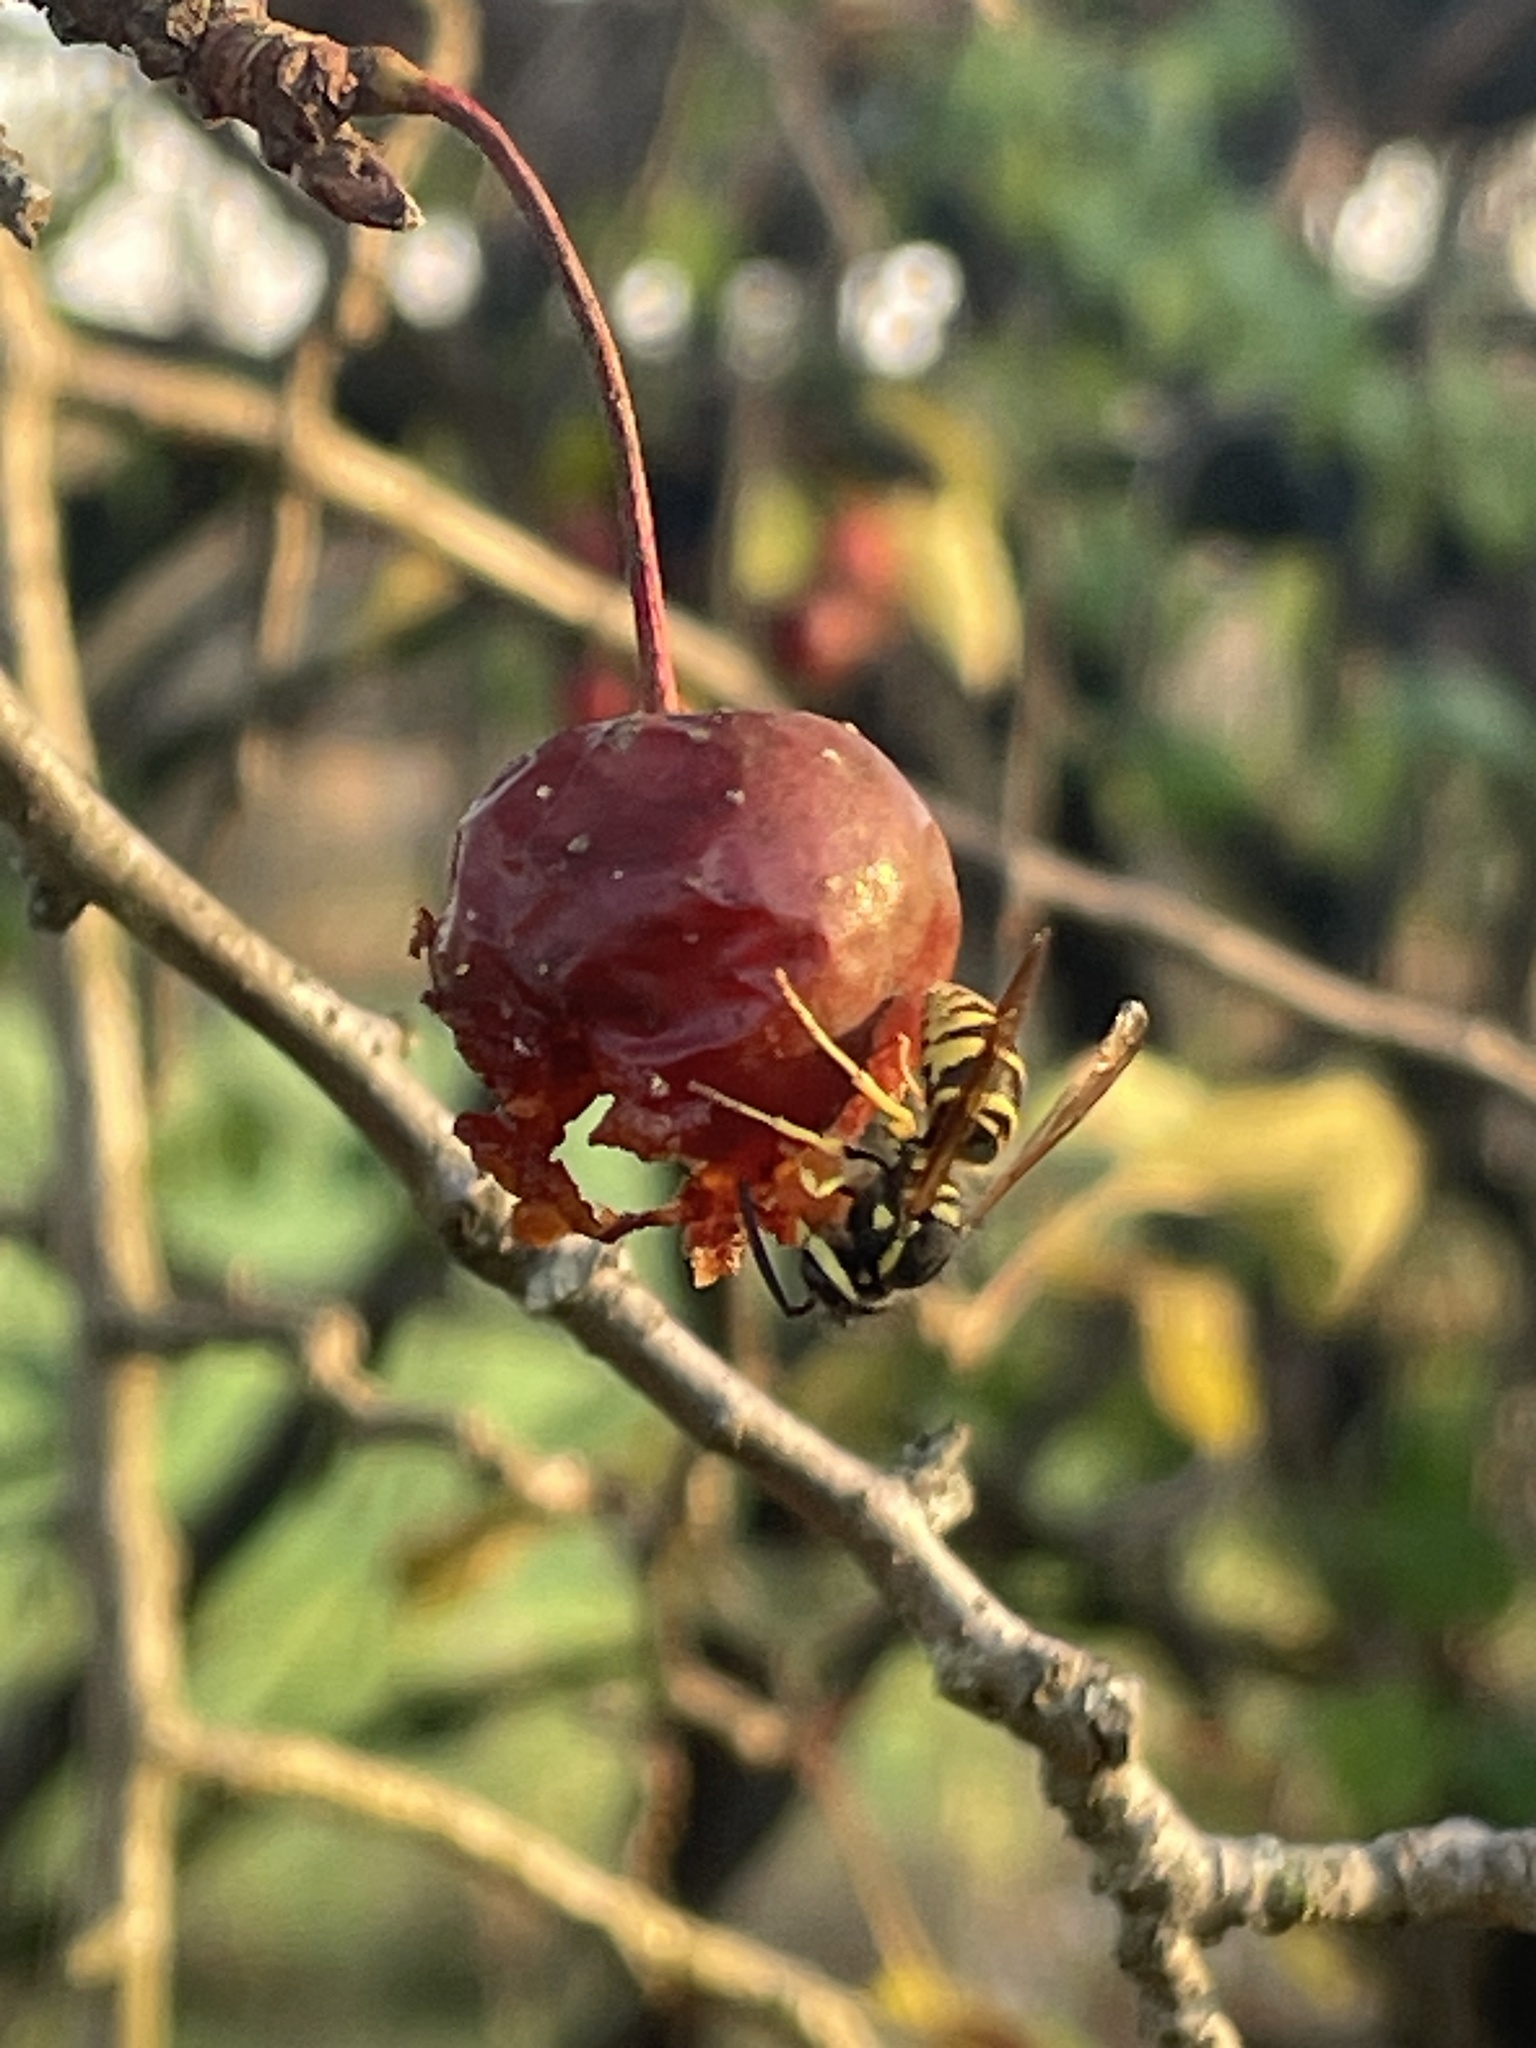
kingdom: Animalia
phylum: Arthropoda
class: Insecta
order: Hymenoptera
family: Vespidae
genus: Vespula
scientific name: Vespula maculifrons
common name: Eastern yellowjacket
